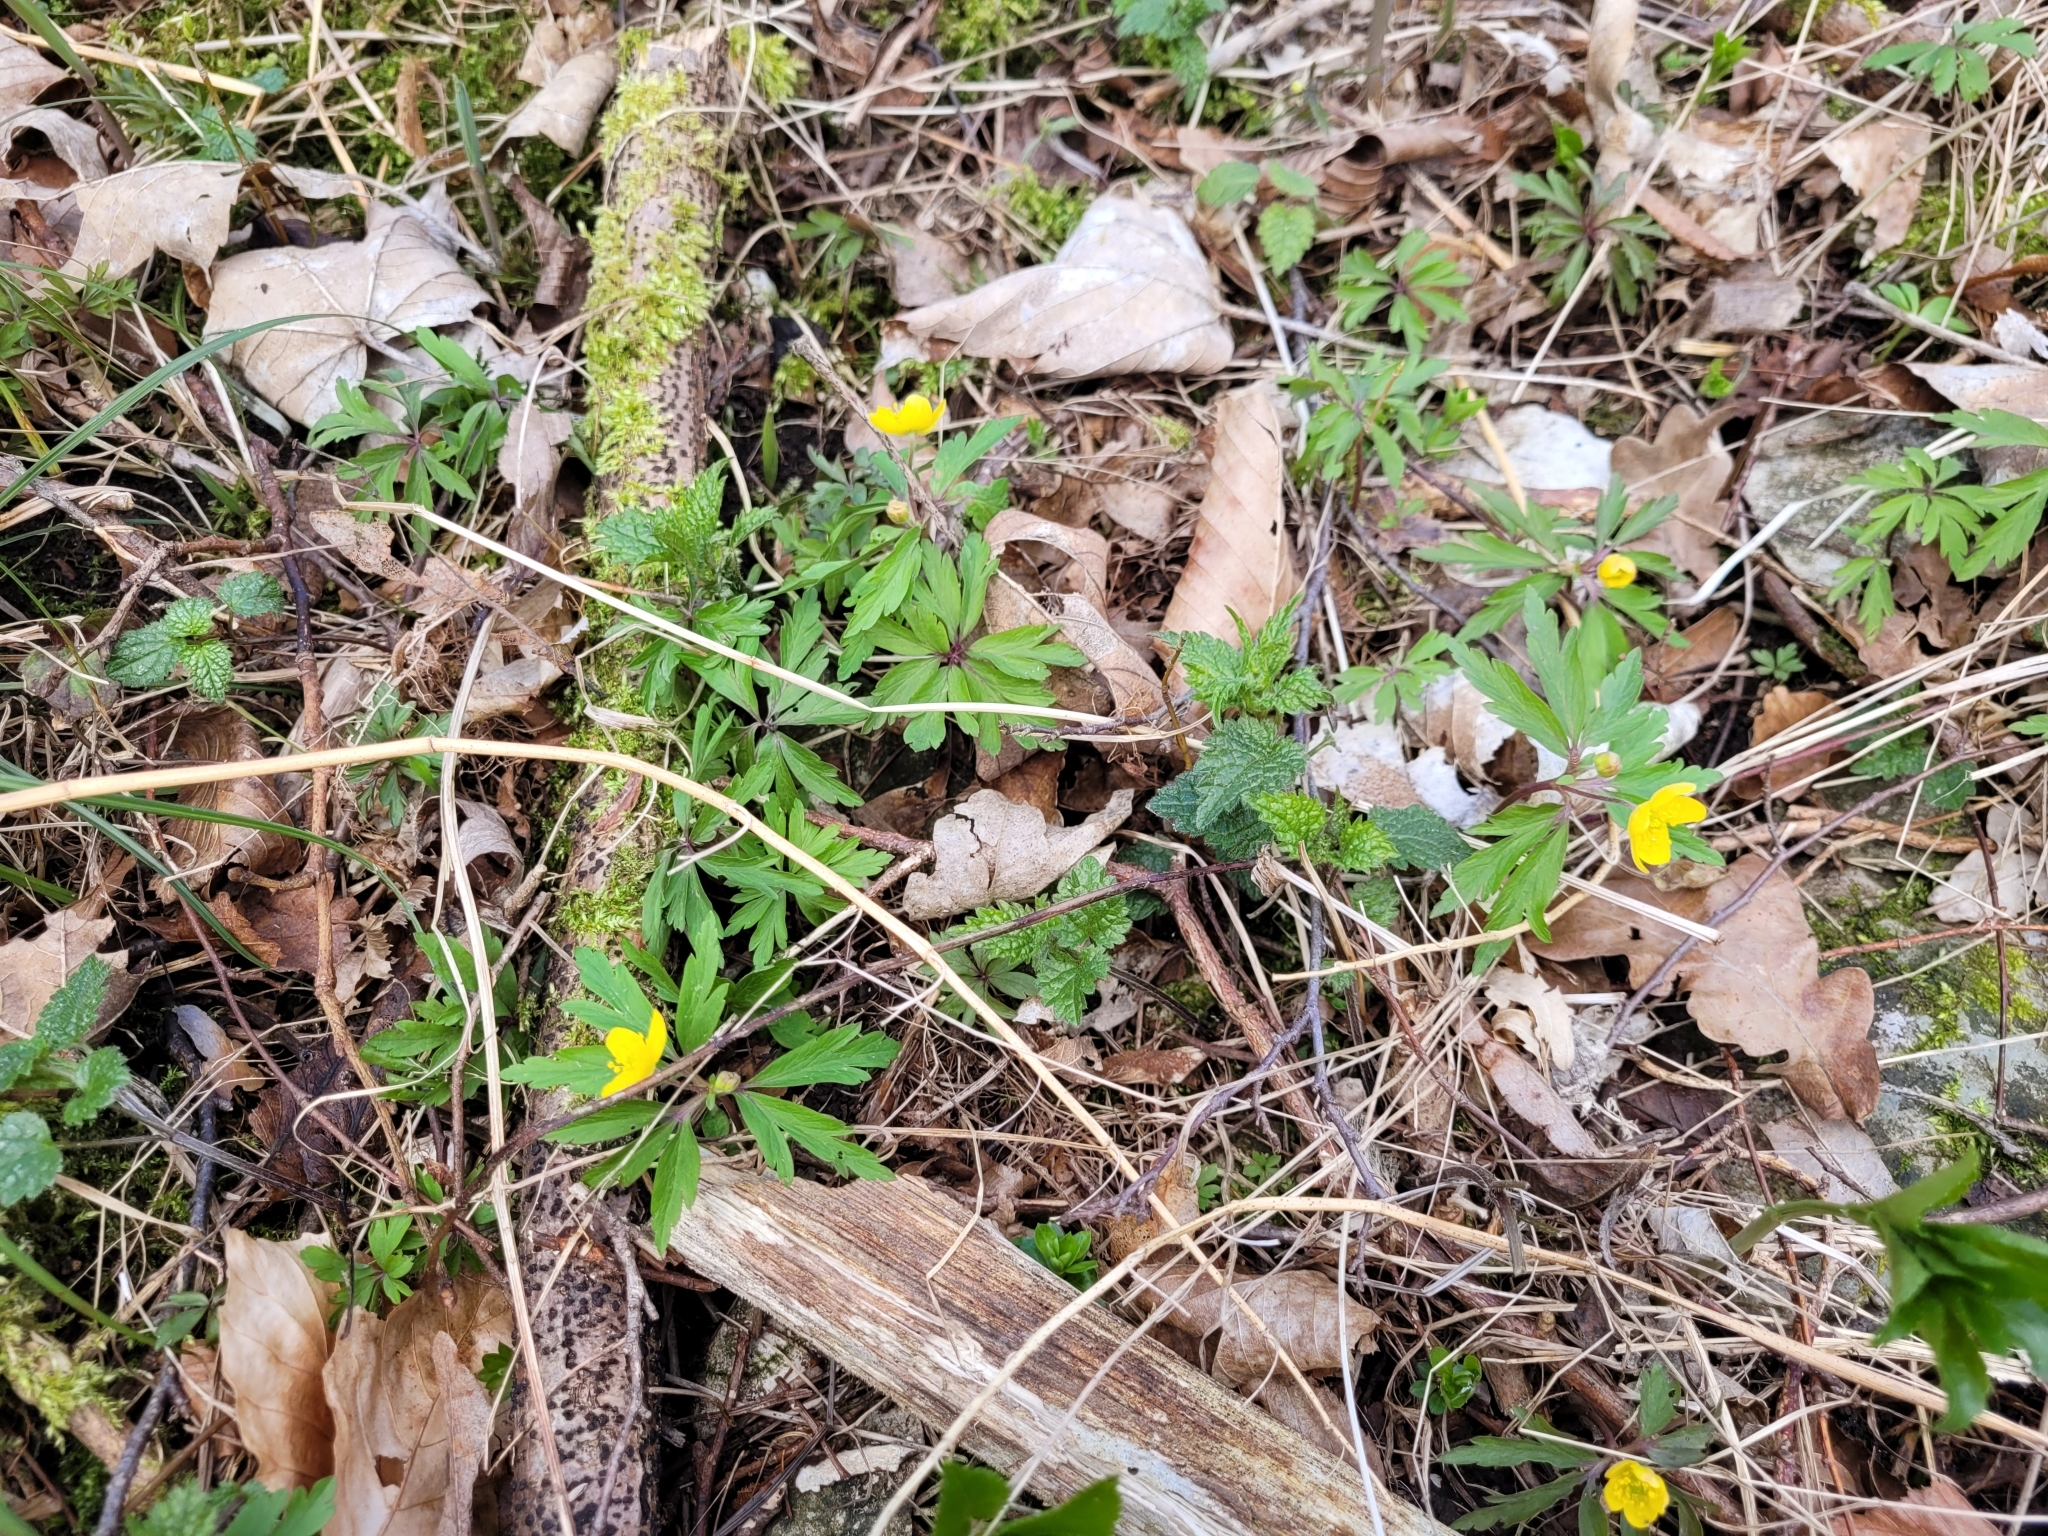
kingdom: Plantae
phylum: Tracheophyta
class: Magnoliopsida
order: Ranunculales
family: Ranunculaceae
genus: Anemone
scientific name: Anemone ranunculoides
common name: Yellow anemone
